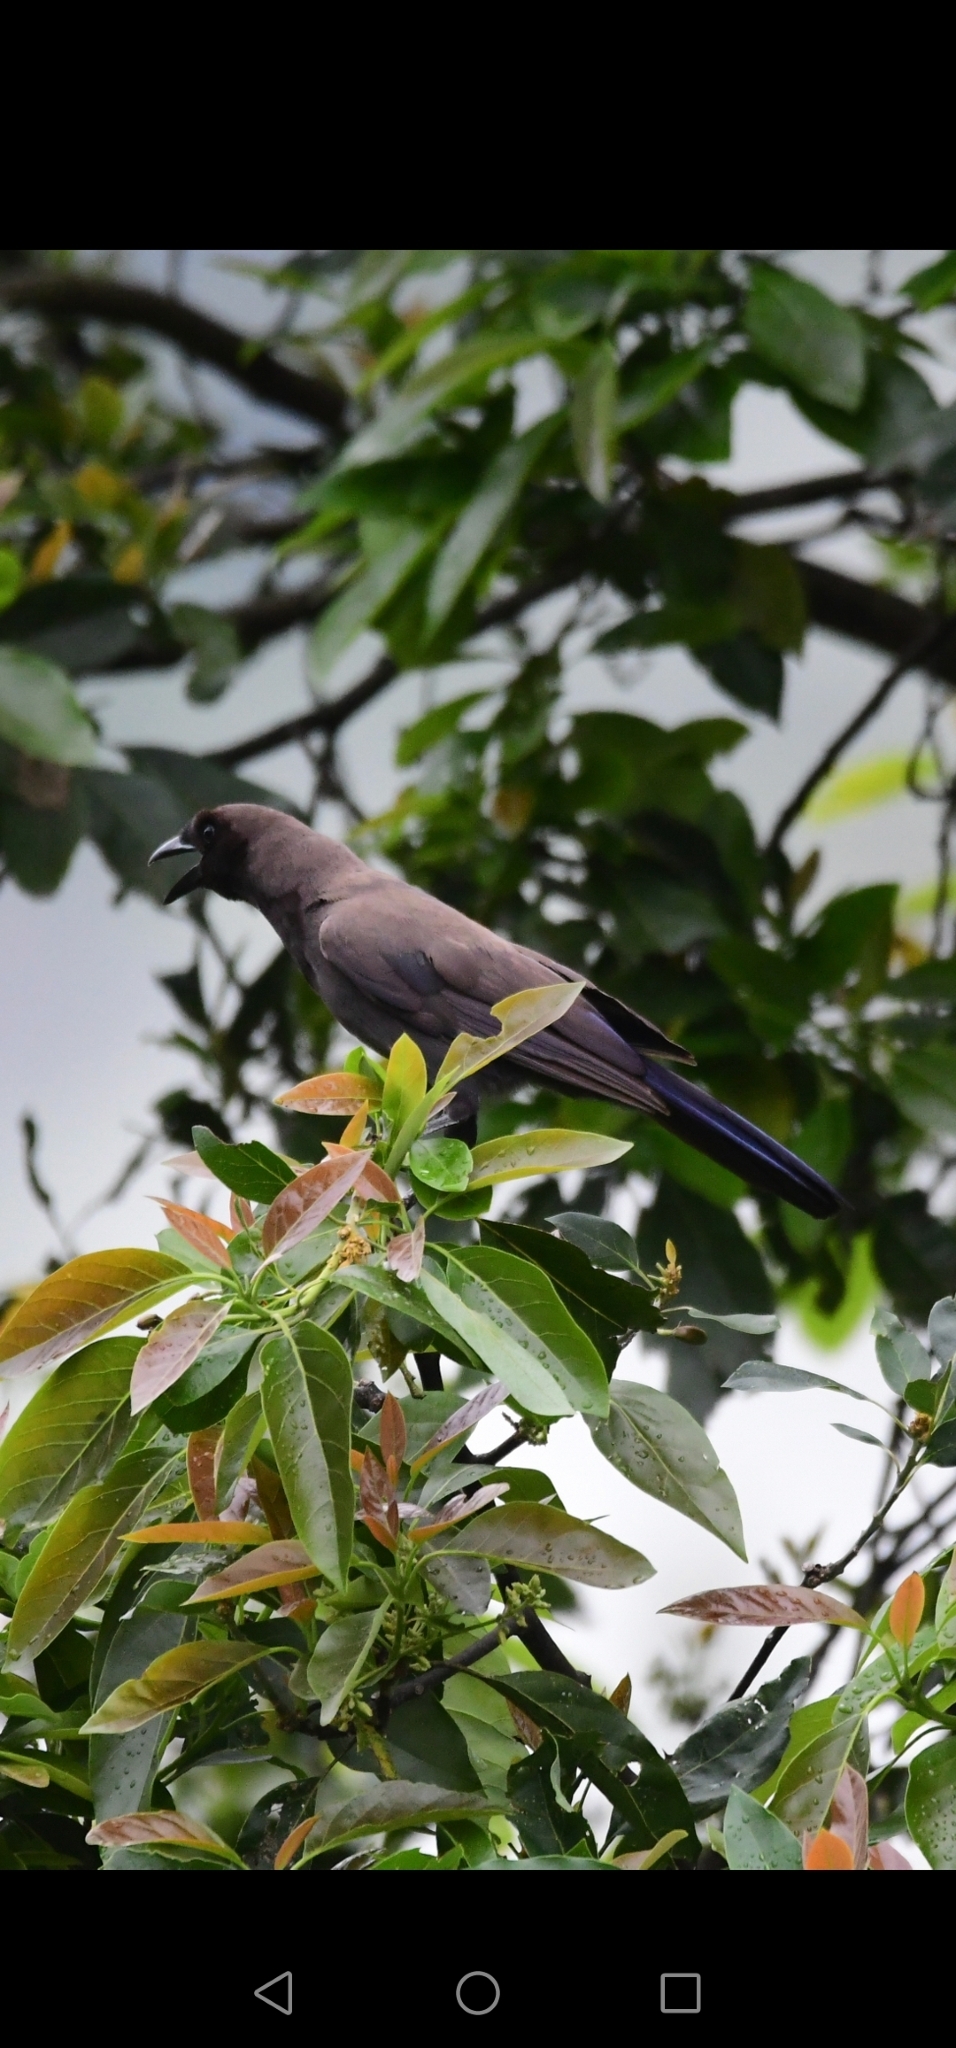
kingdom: Animalia
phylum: Chordata
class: Aves
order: Passeriformes
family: Corvidae
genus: Cyanocorax
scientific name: Cyanocorax cyanomelas
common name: Purplish jay
